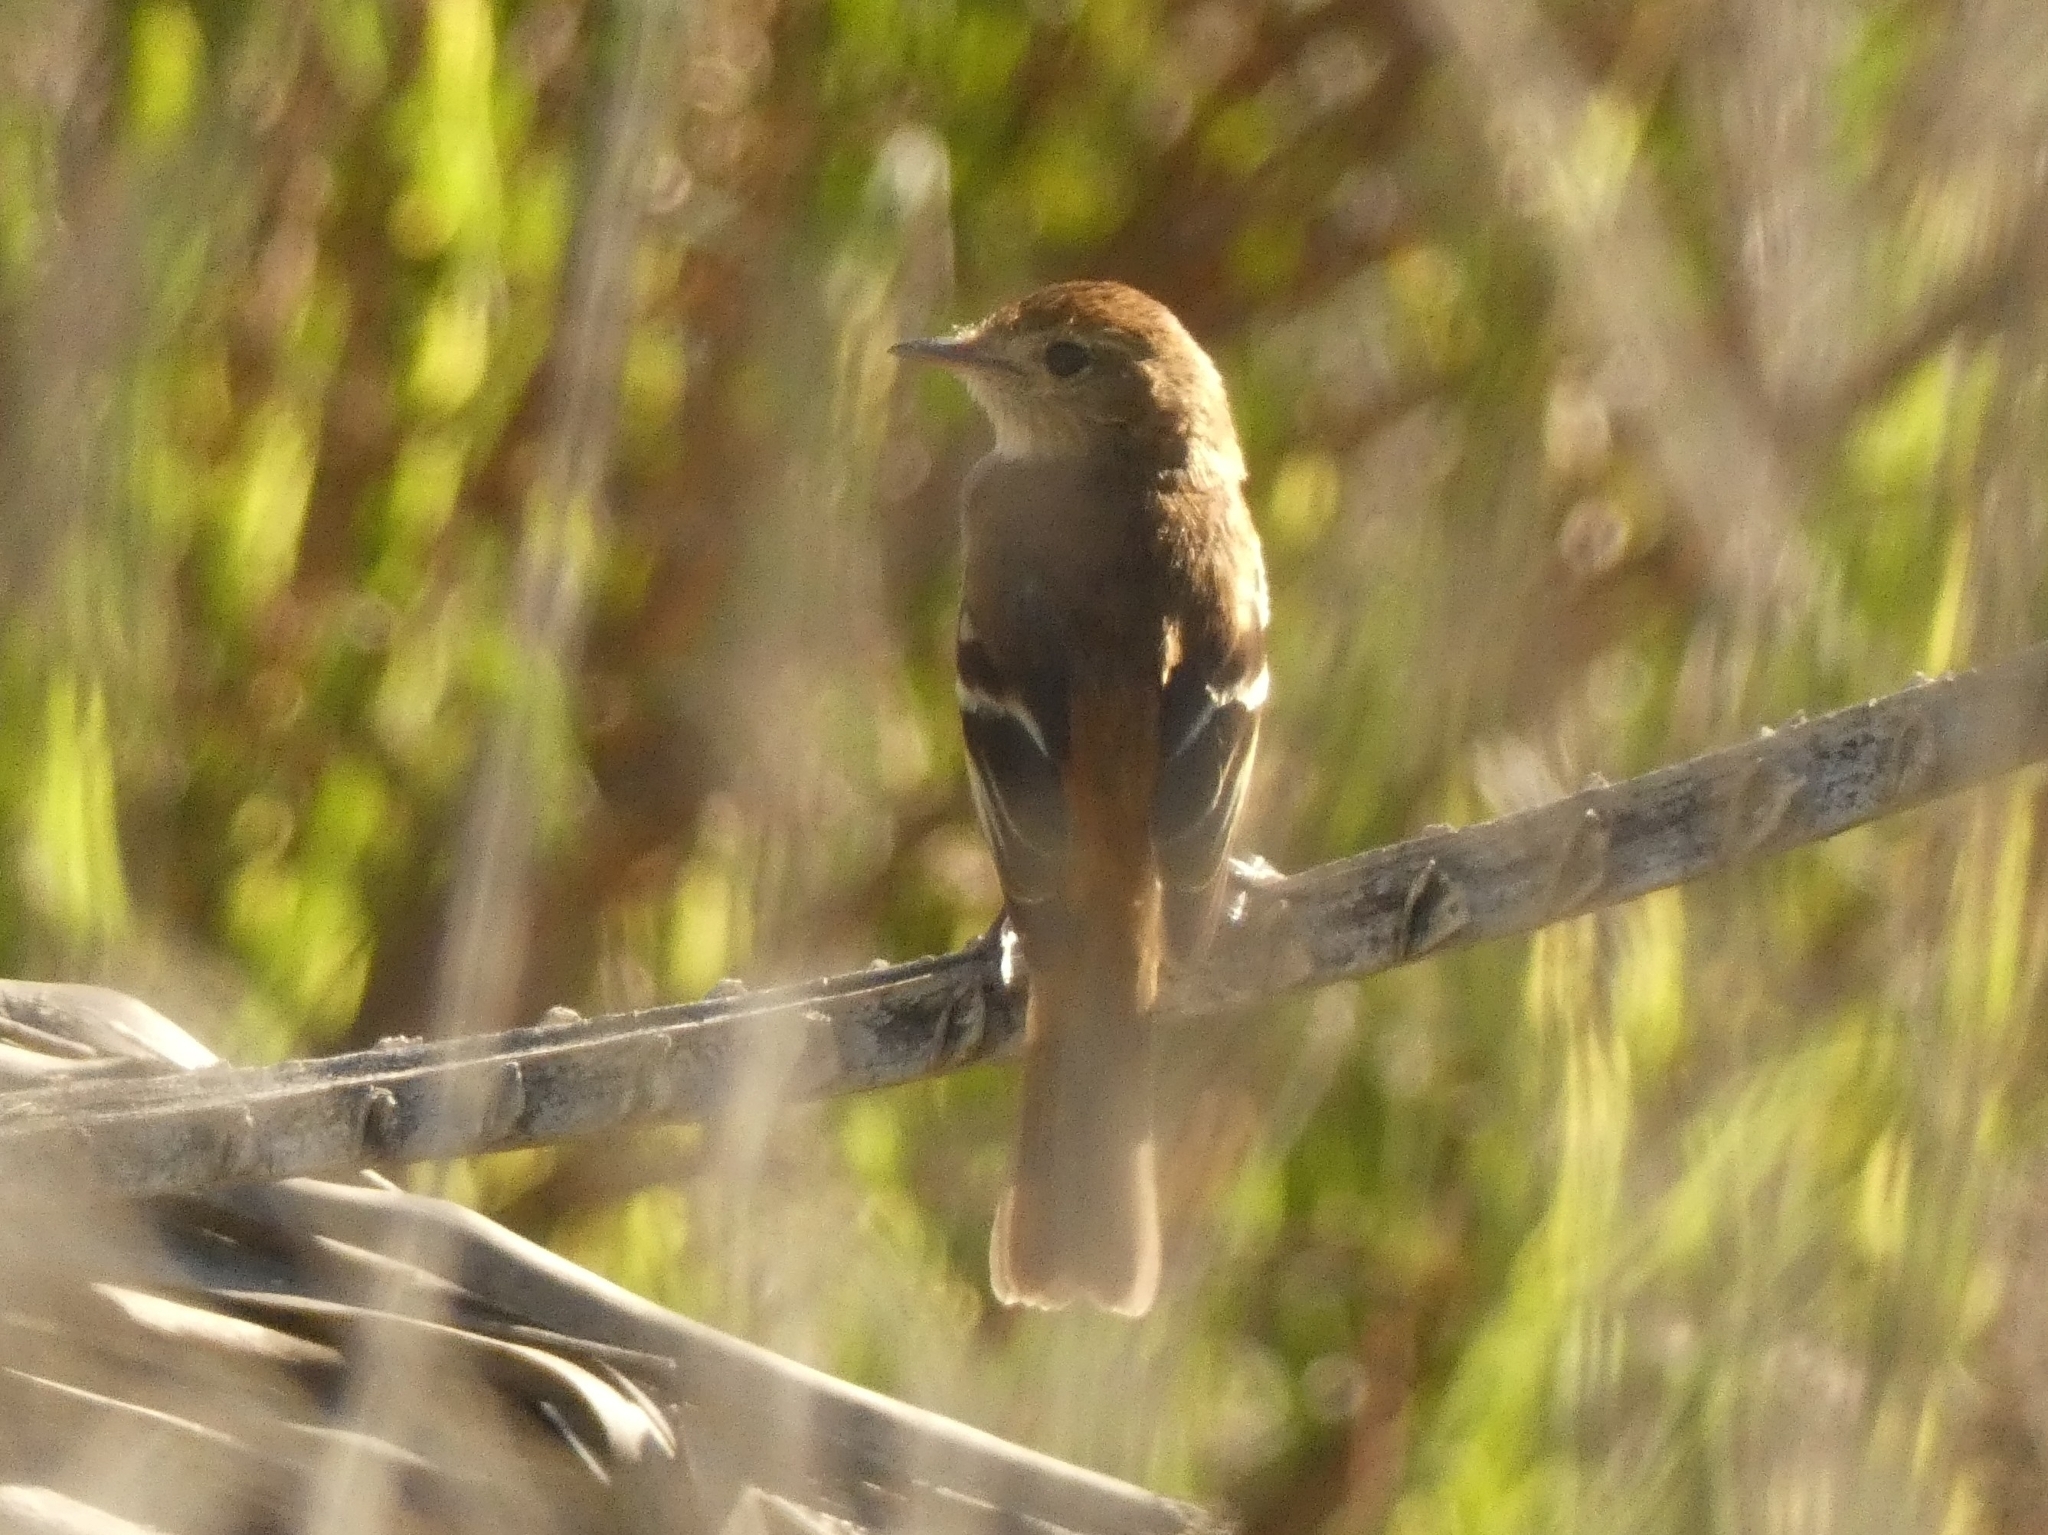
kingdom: Animalia
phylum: Chordata
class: Aves
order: Passeriformes
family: Tyrannidae
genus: Myiophobus
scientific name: Myiophobus fasciatus
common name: Bran-colored flycatcher
